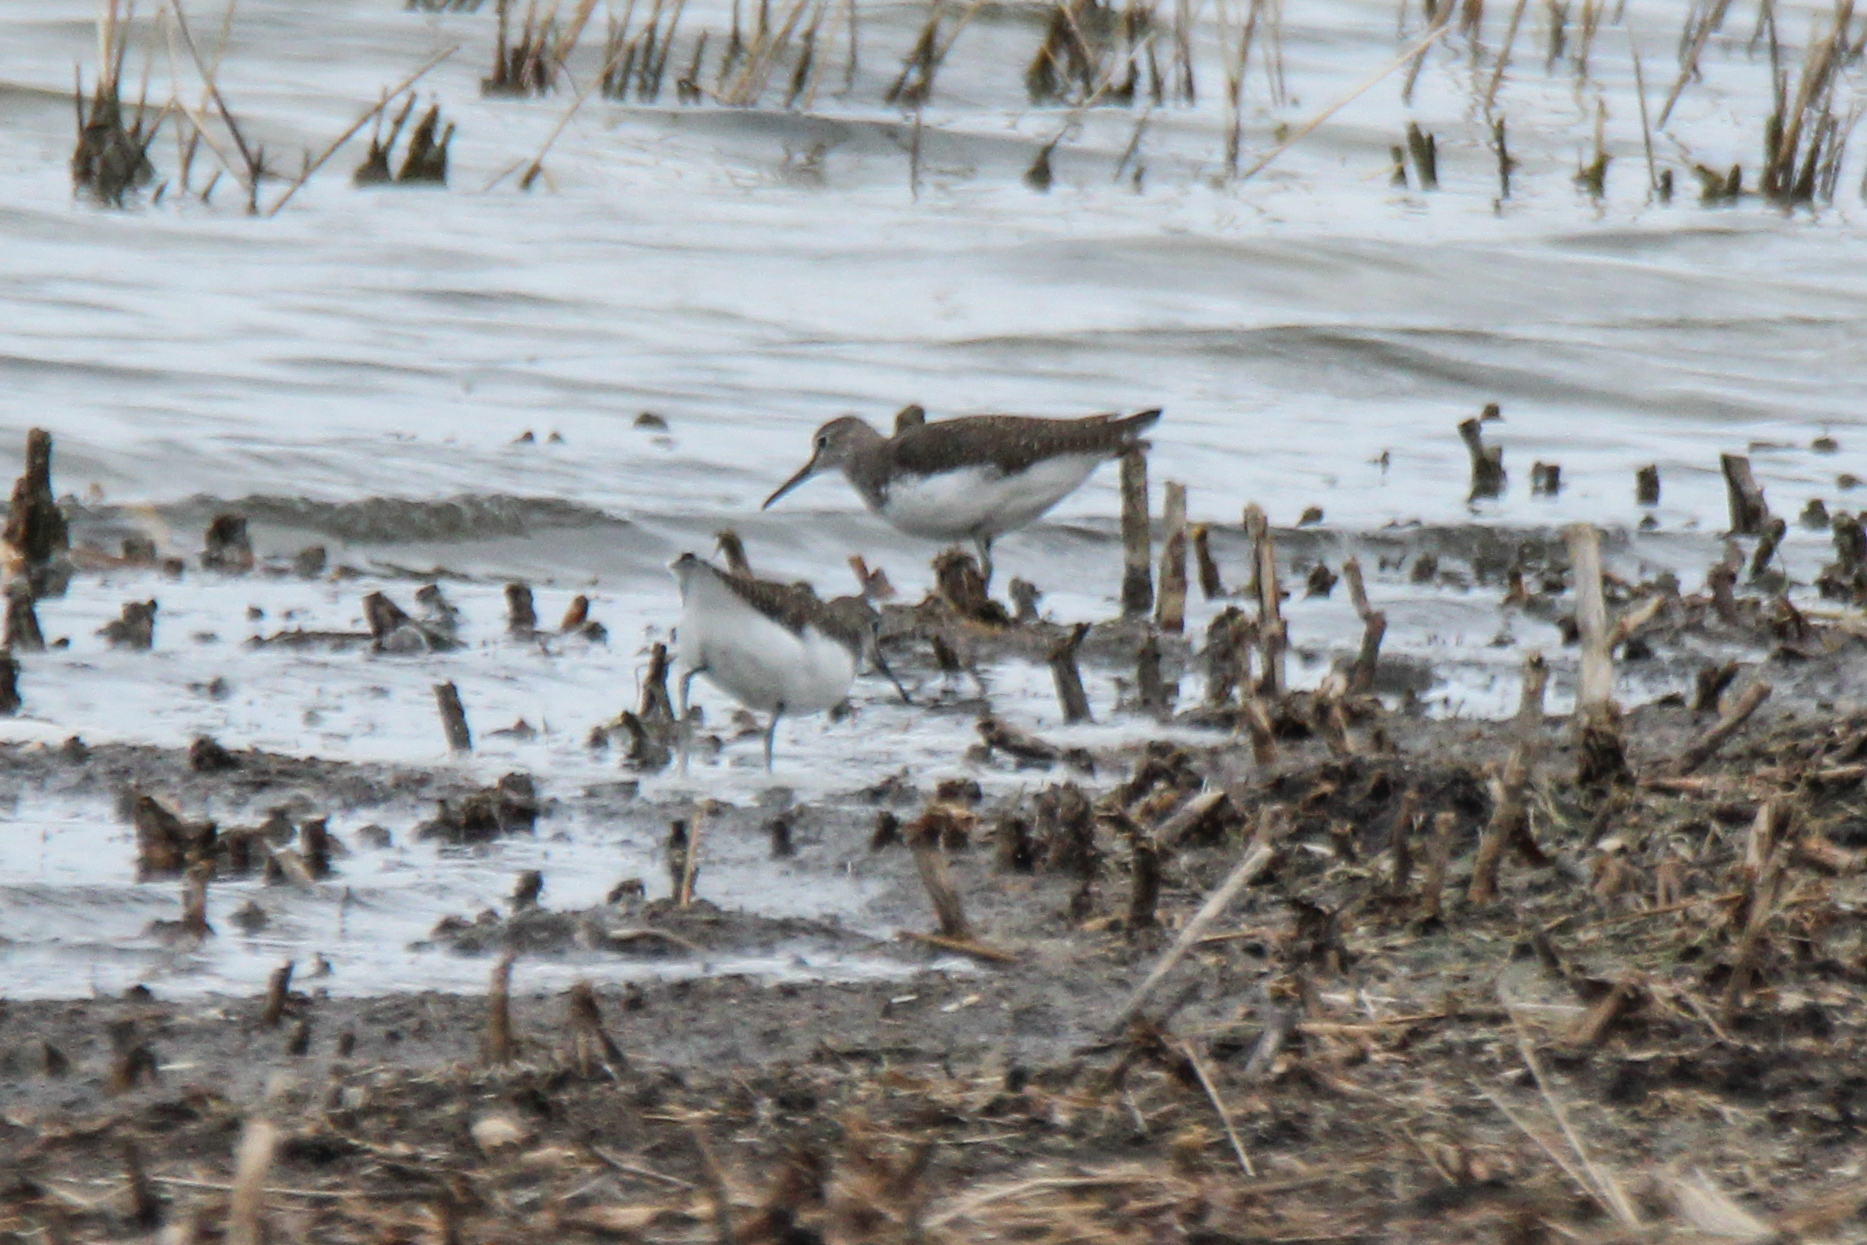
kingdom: Animalia
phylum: Chordata
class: Aves
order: Charadriiformes
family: Scolopacidae
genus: Tringa
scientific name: Tringa ochropus
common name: Green sandpiper
